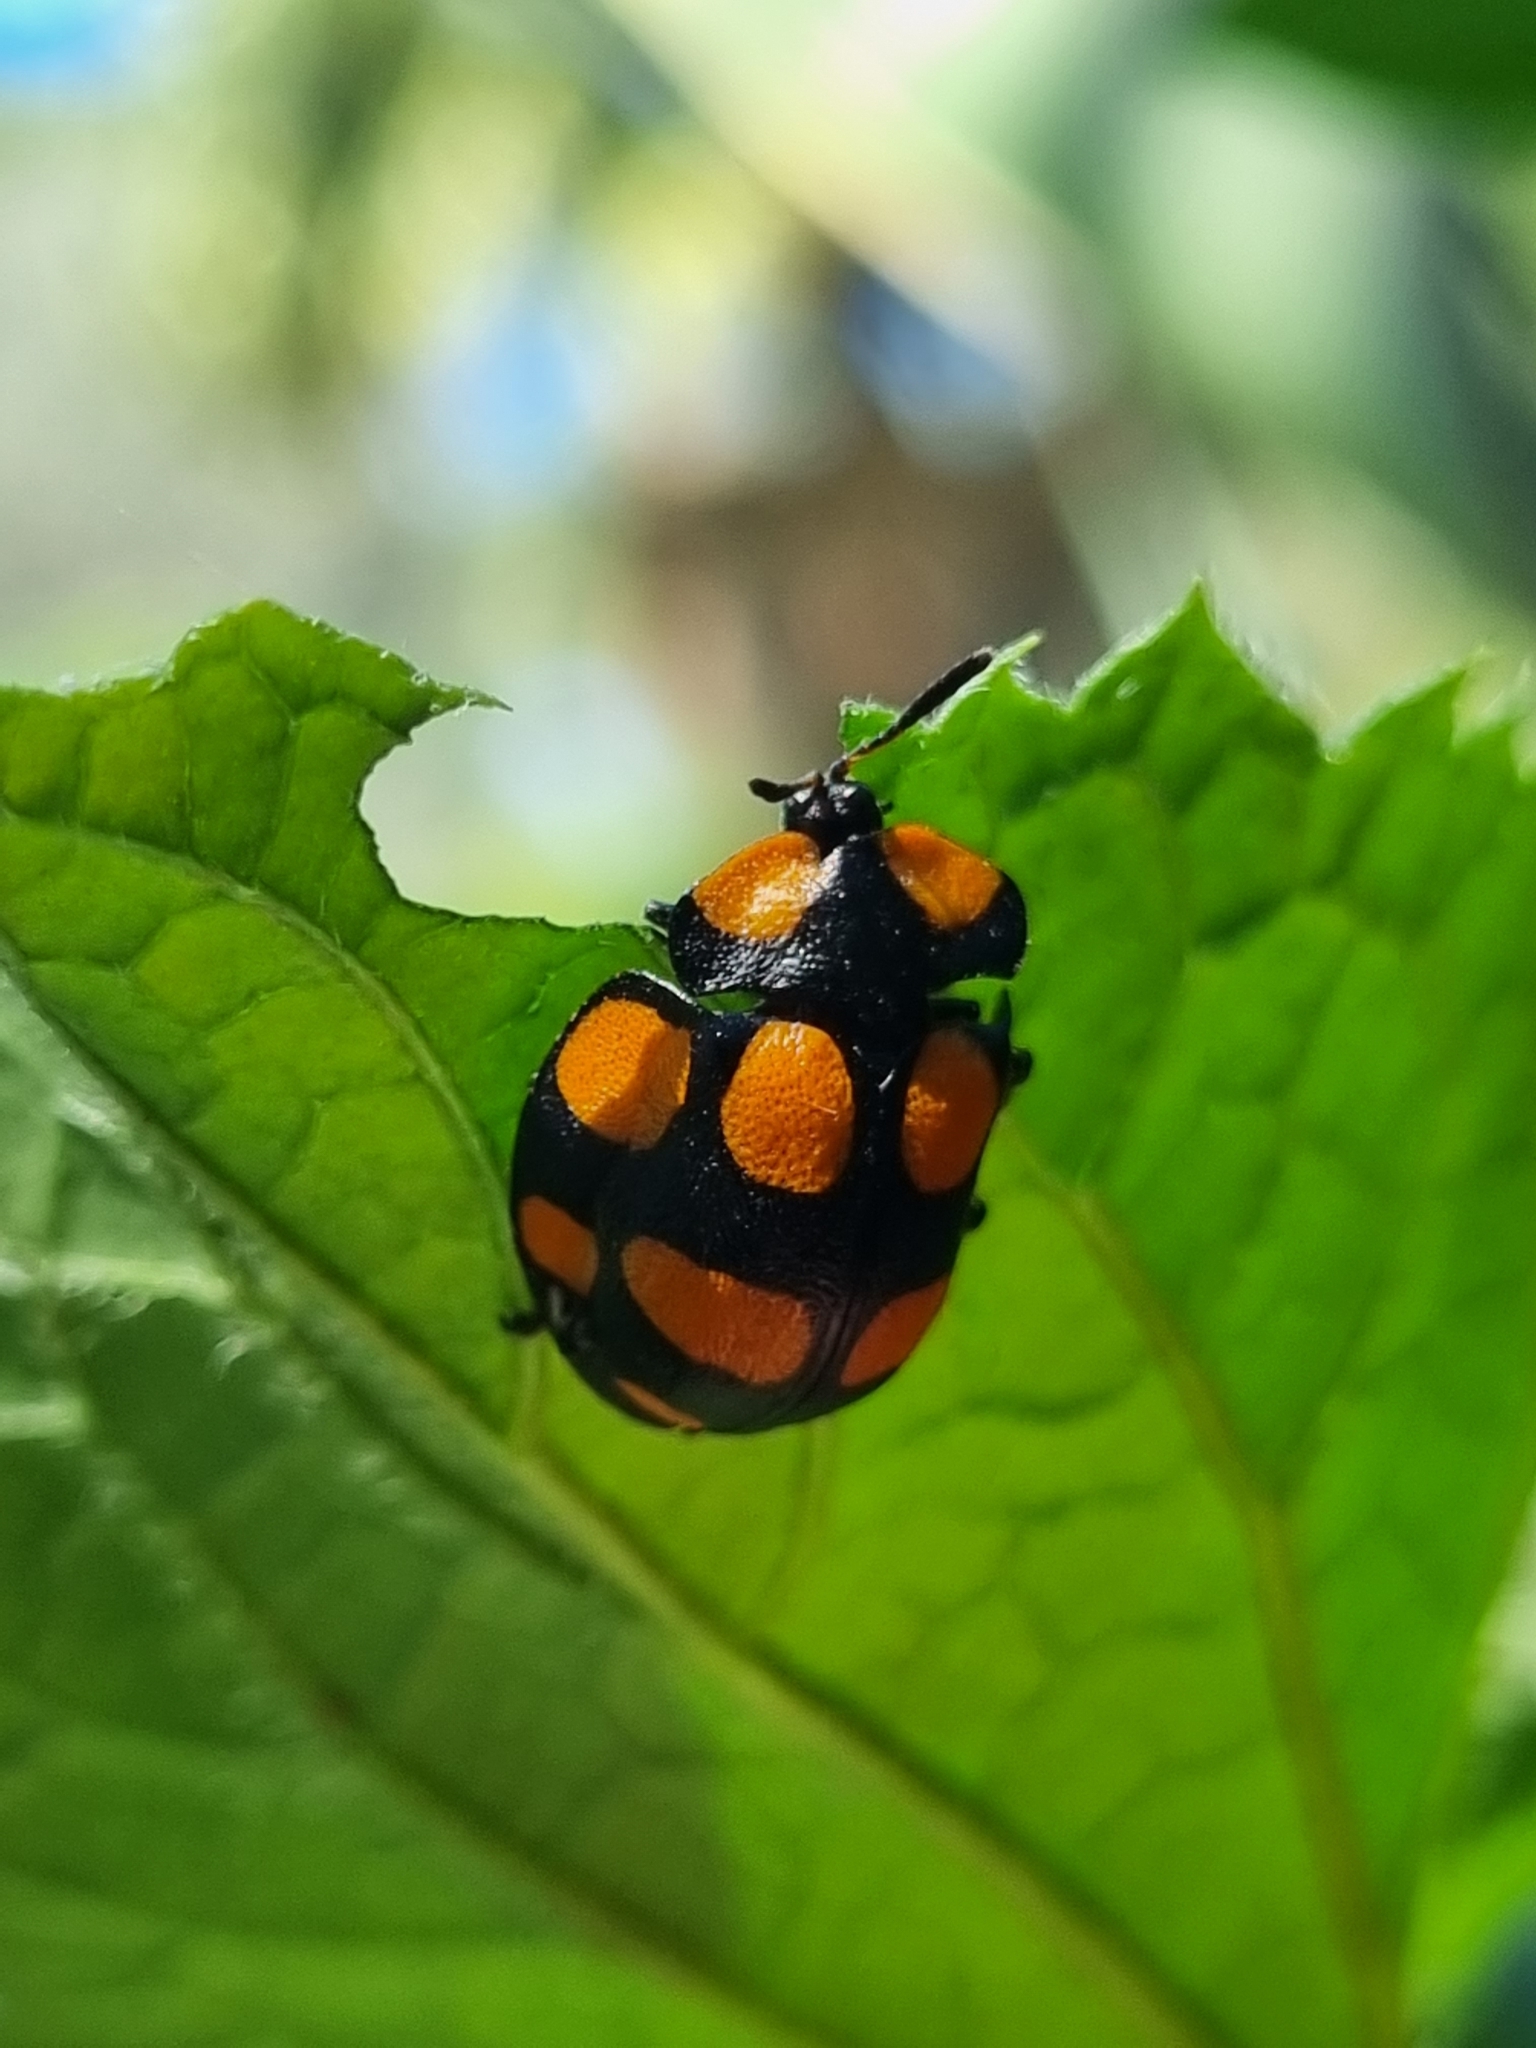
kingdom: Animalia
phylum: Arthropoda
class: Insecta
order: Coleoptera
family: Chrysomelidae
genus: Botanochara
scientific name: Botanochara decempustulata
